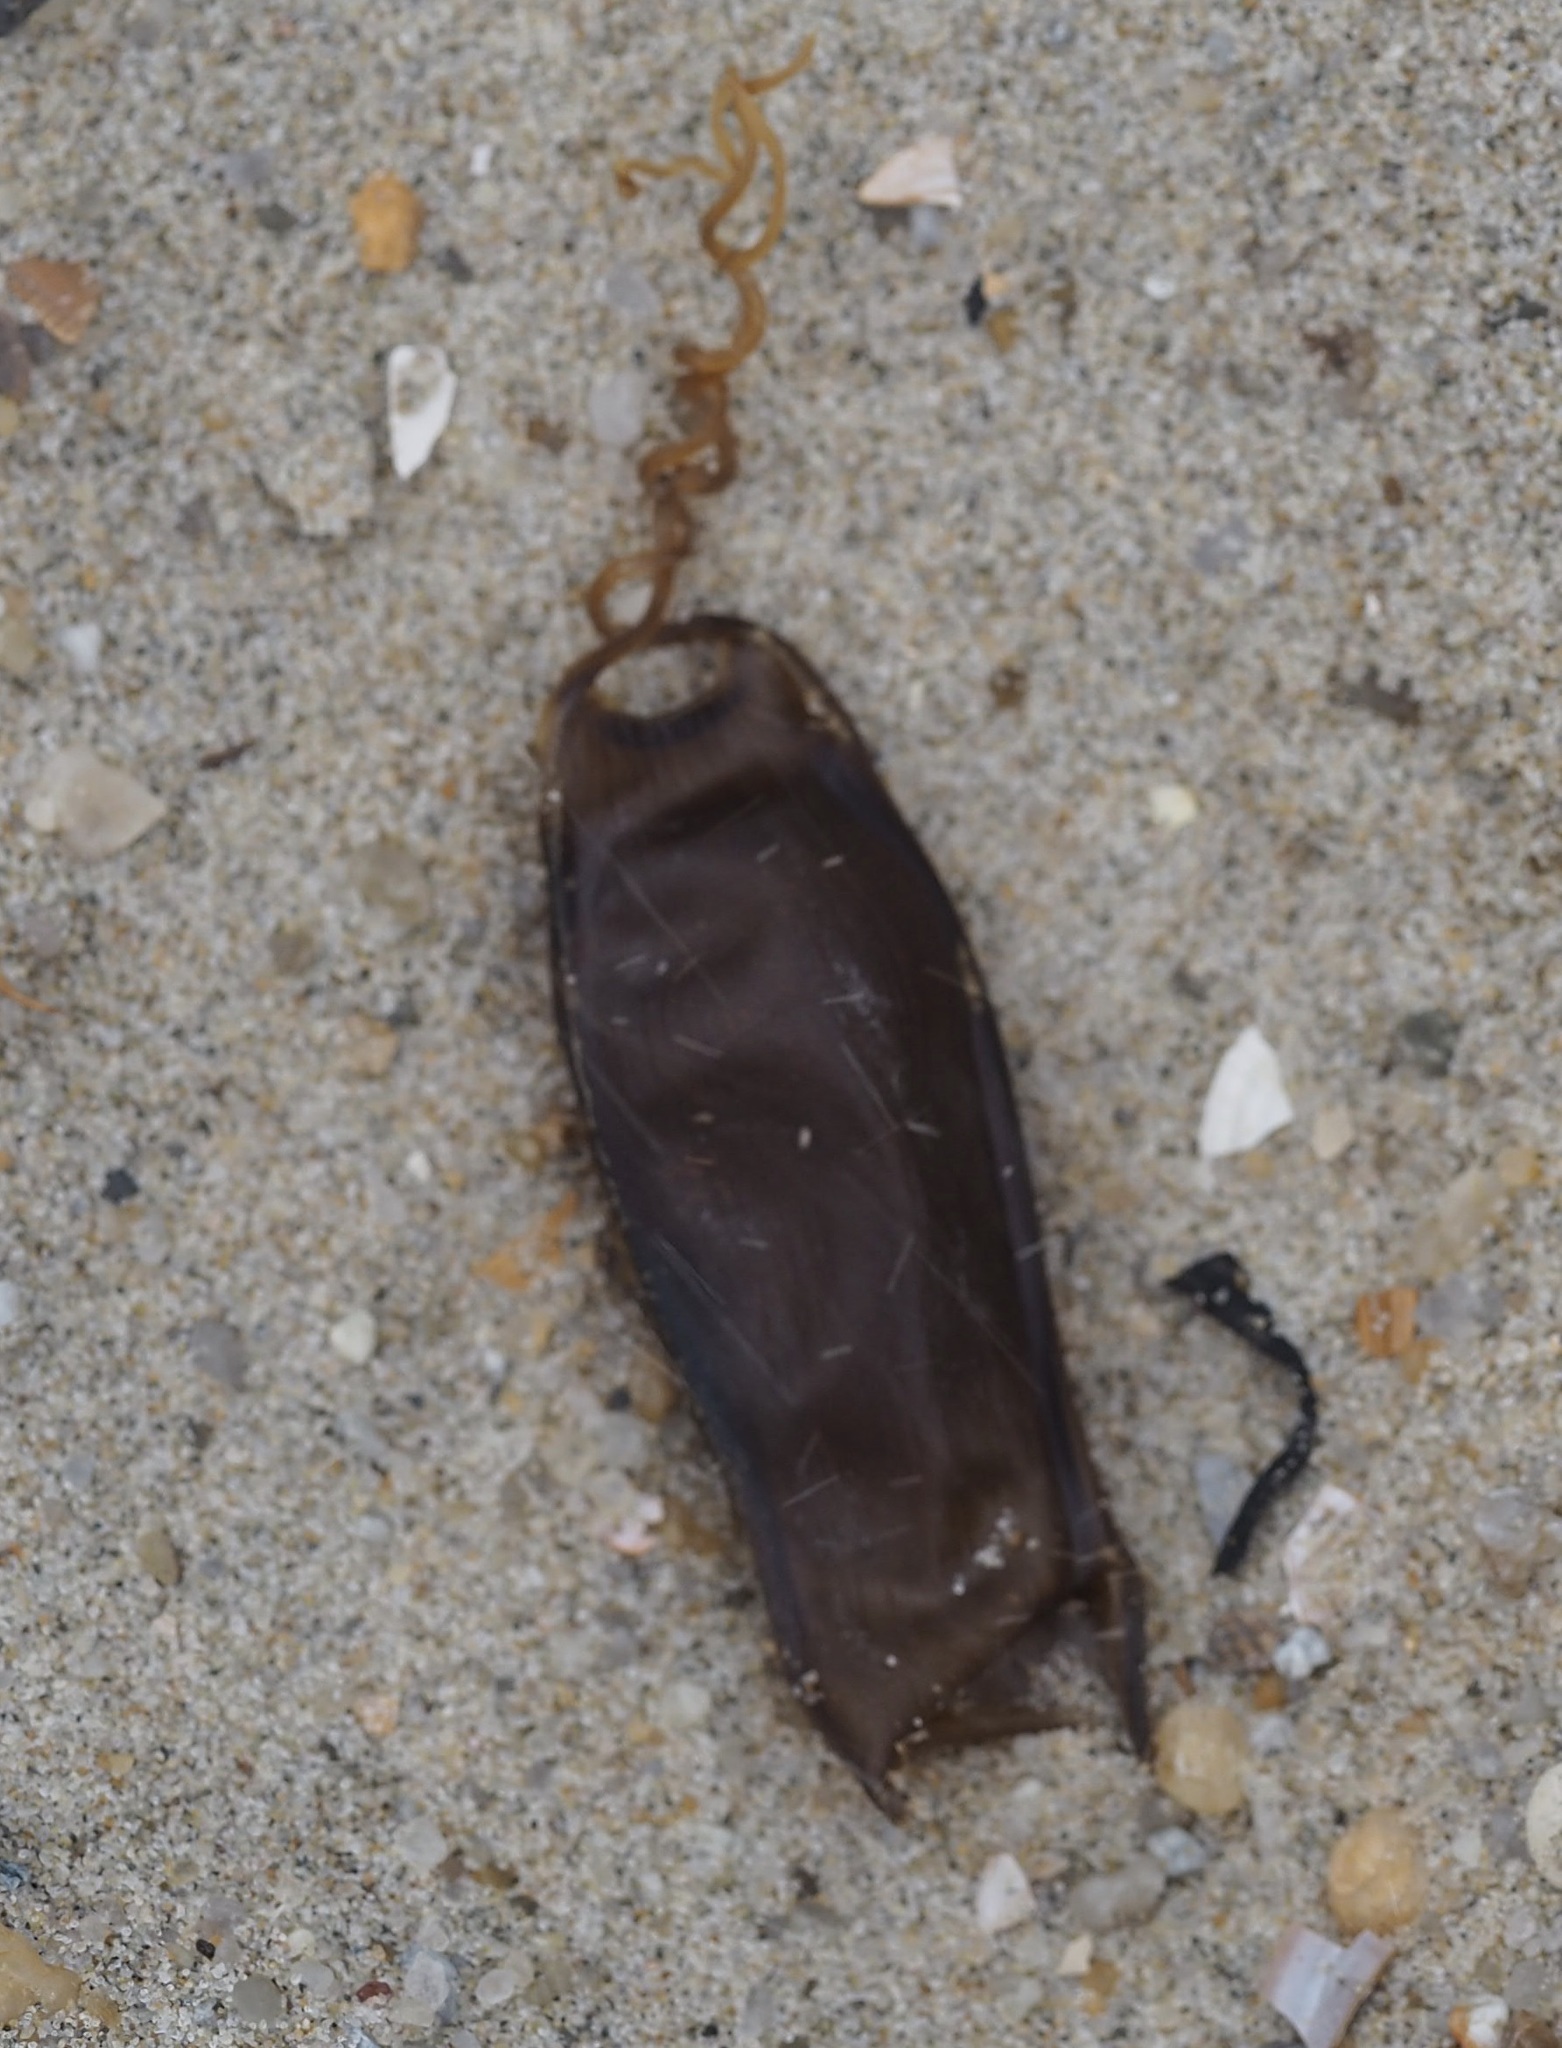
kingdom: Animalia
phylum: Chordata
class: Elasmobranchii
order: Carcharhiniformes
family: Scyliorhinidae
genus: Scyliorhinus
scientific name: Scyliorhinus canicula
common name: Lesser spotted dogfish
